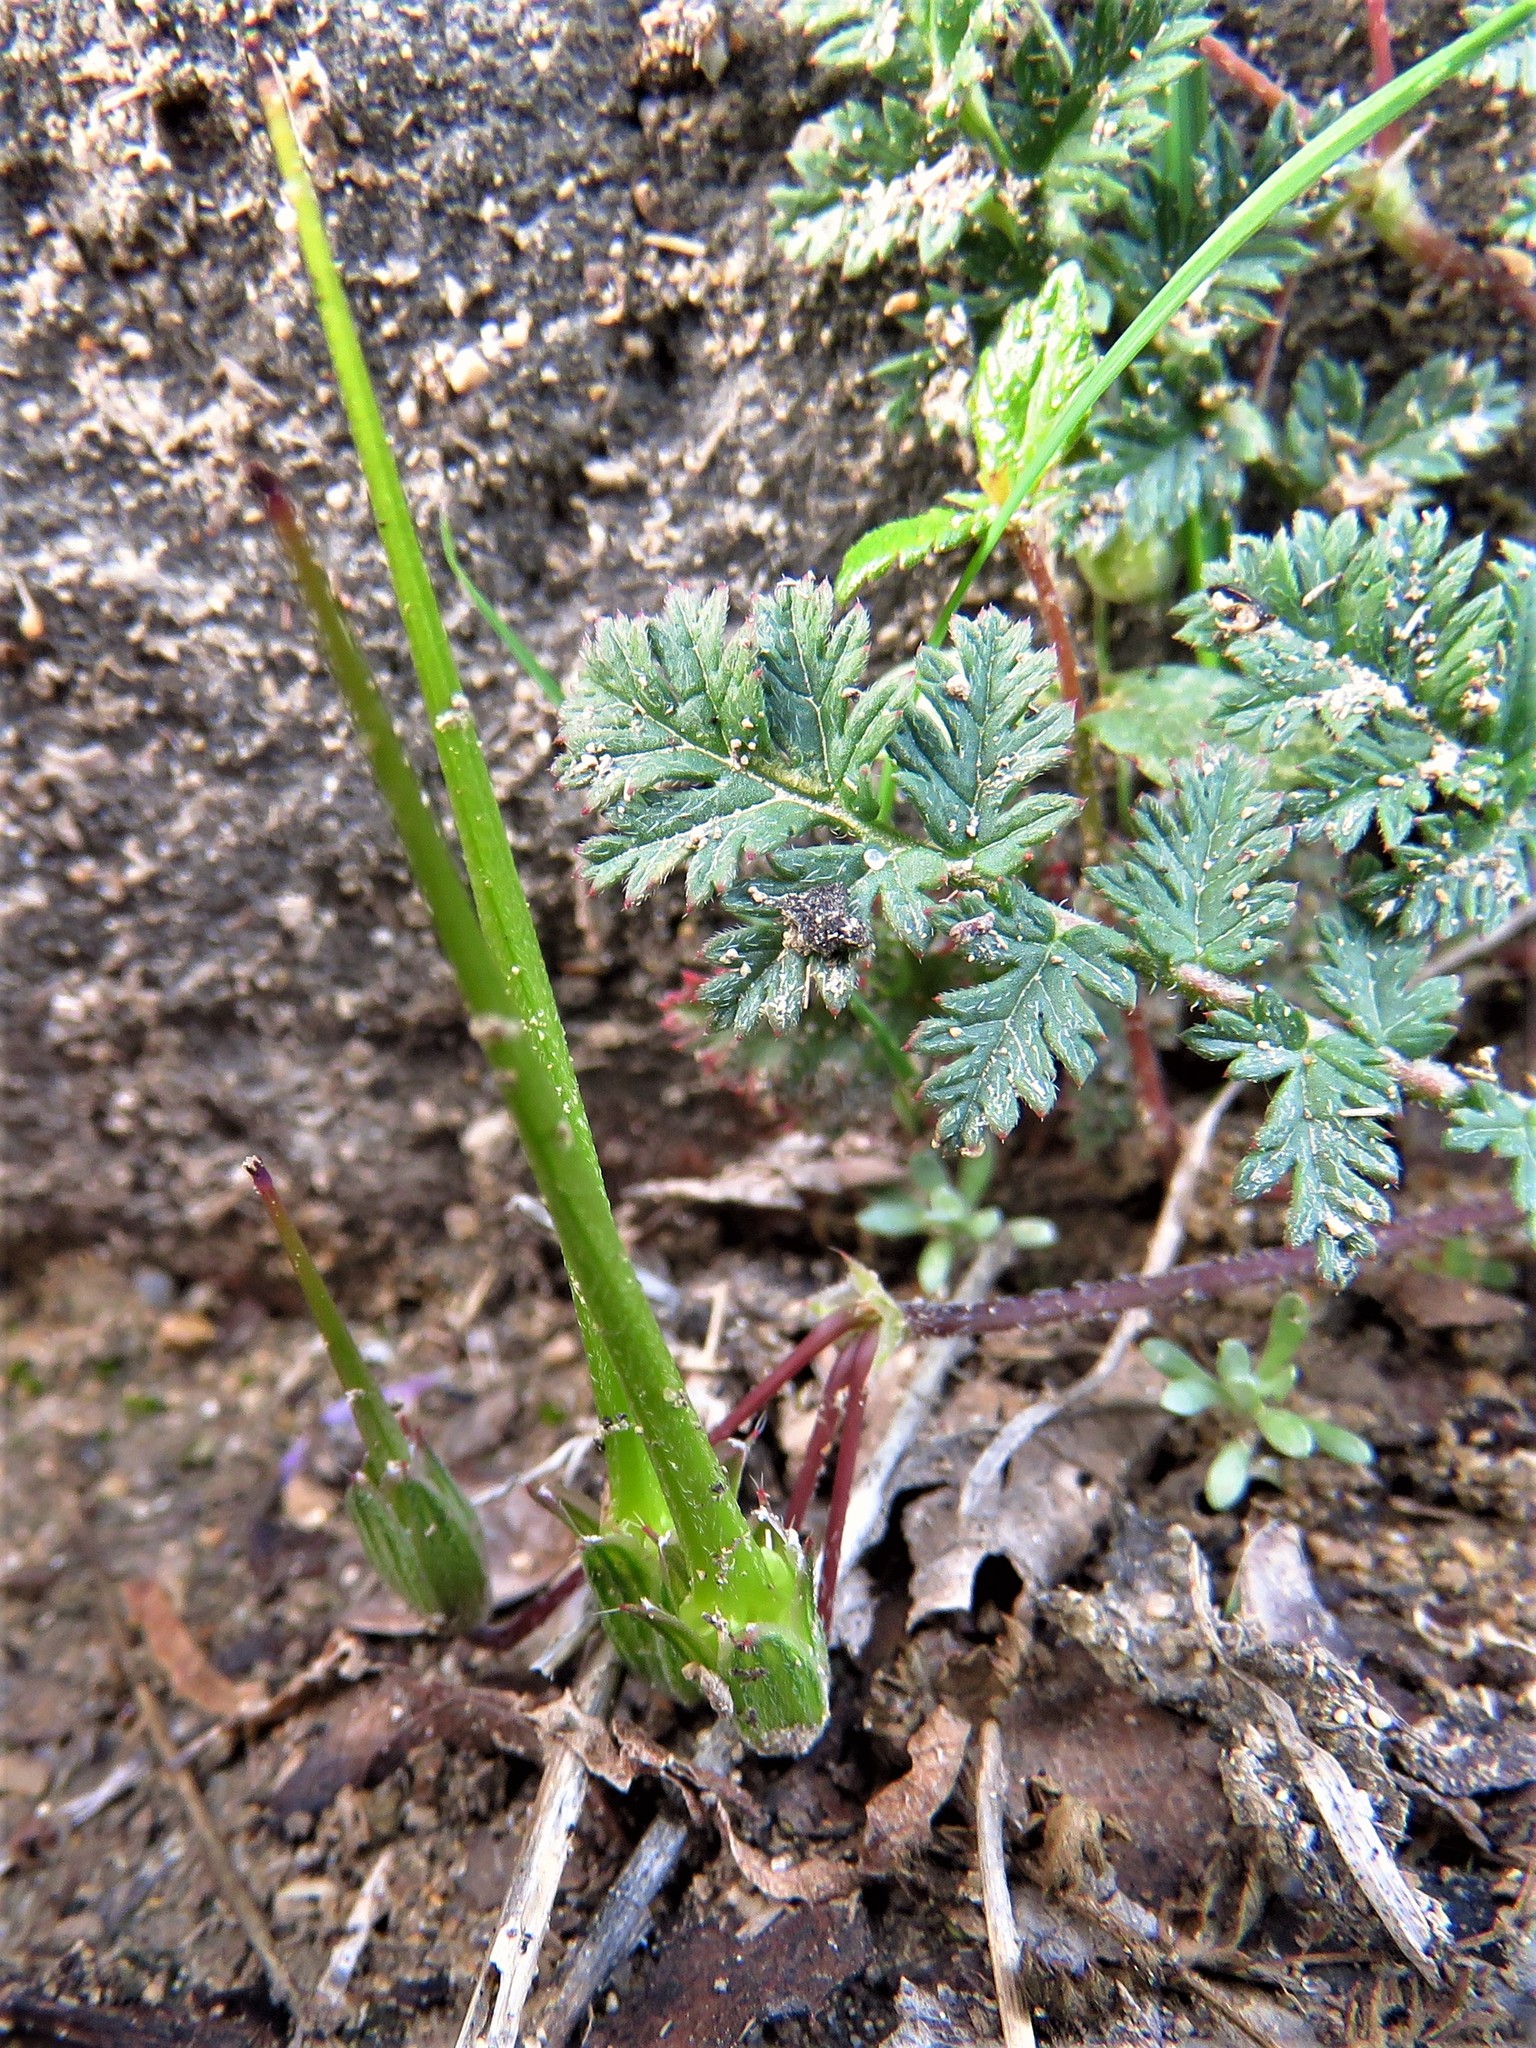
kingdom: Plantae
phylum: Tracheophyta
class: Magnoliopsida
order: Geraniales
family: Geraniaceae
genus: Erodium
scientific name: Erodium cicutarium
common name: Common stork's-bill
